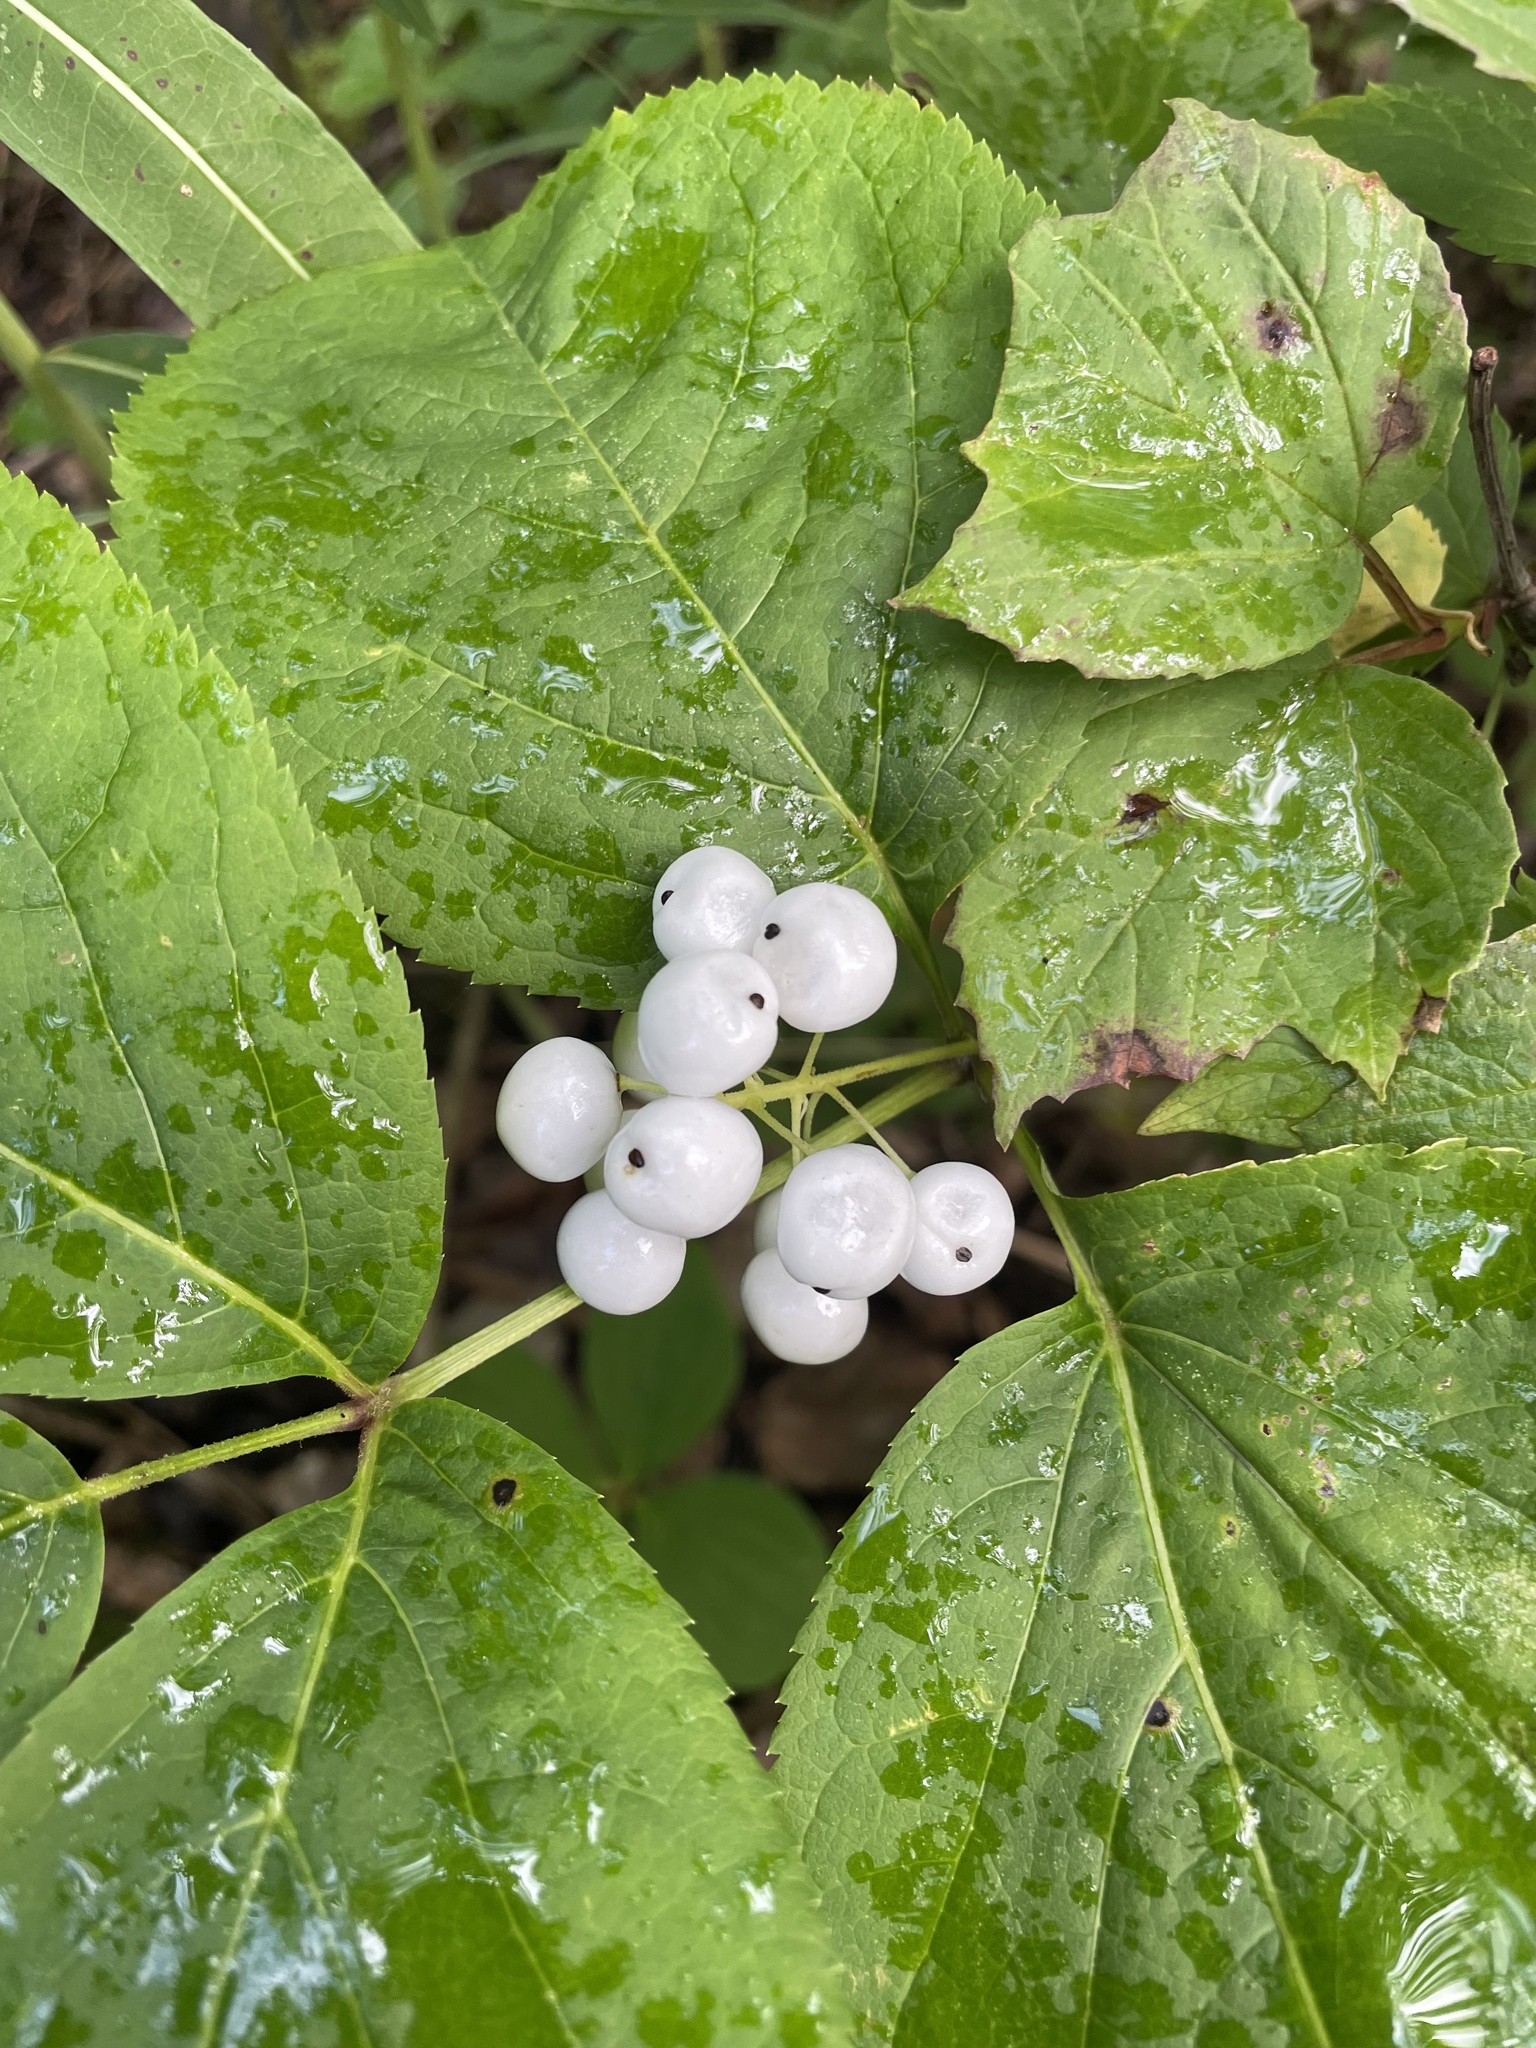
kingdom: Plantae
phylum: Tracheophyta
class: Magnoliopsida
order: Ranunculales
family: Ranunculaceae
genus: Actaea
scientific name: Actaea rubra
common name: Red baneberry
